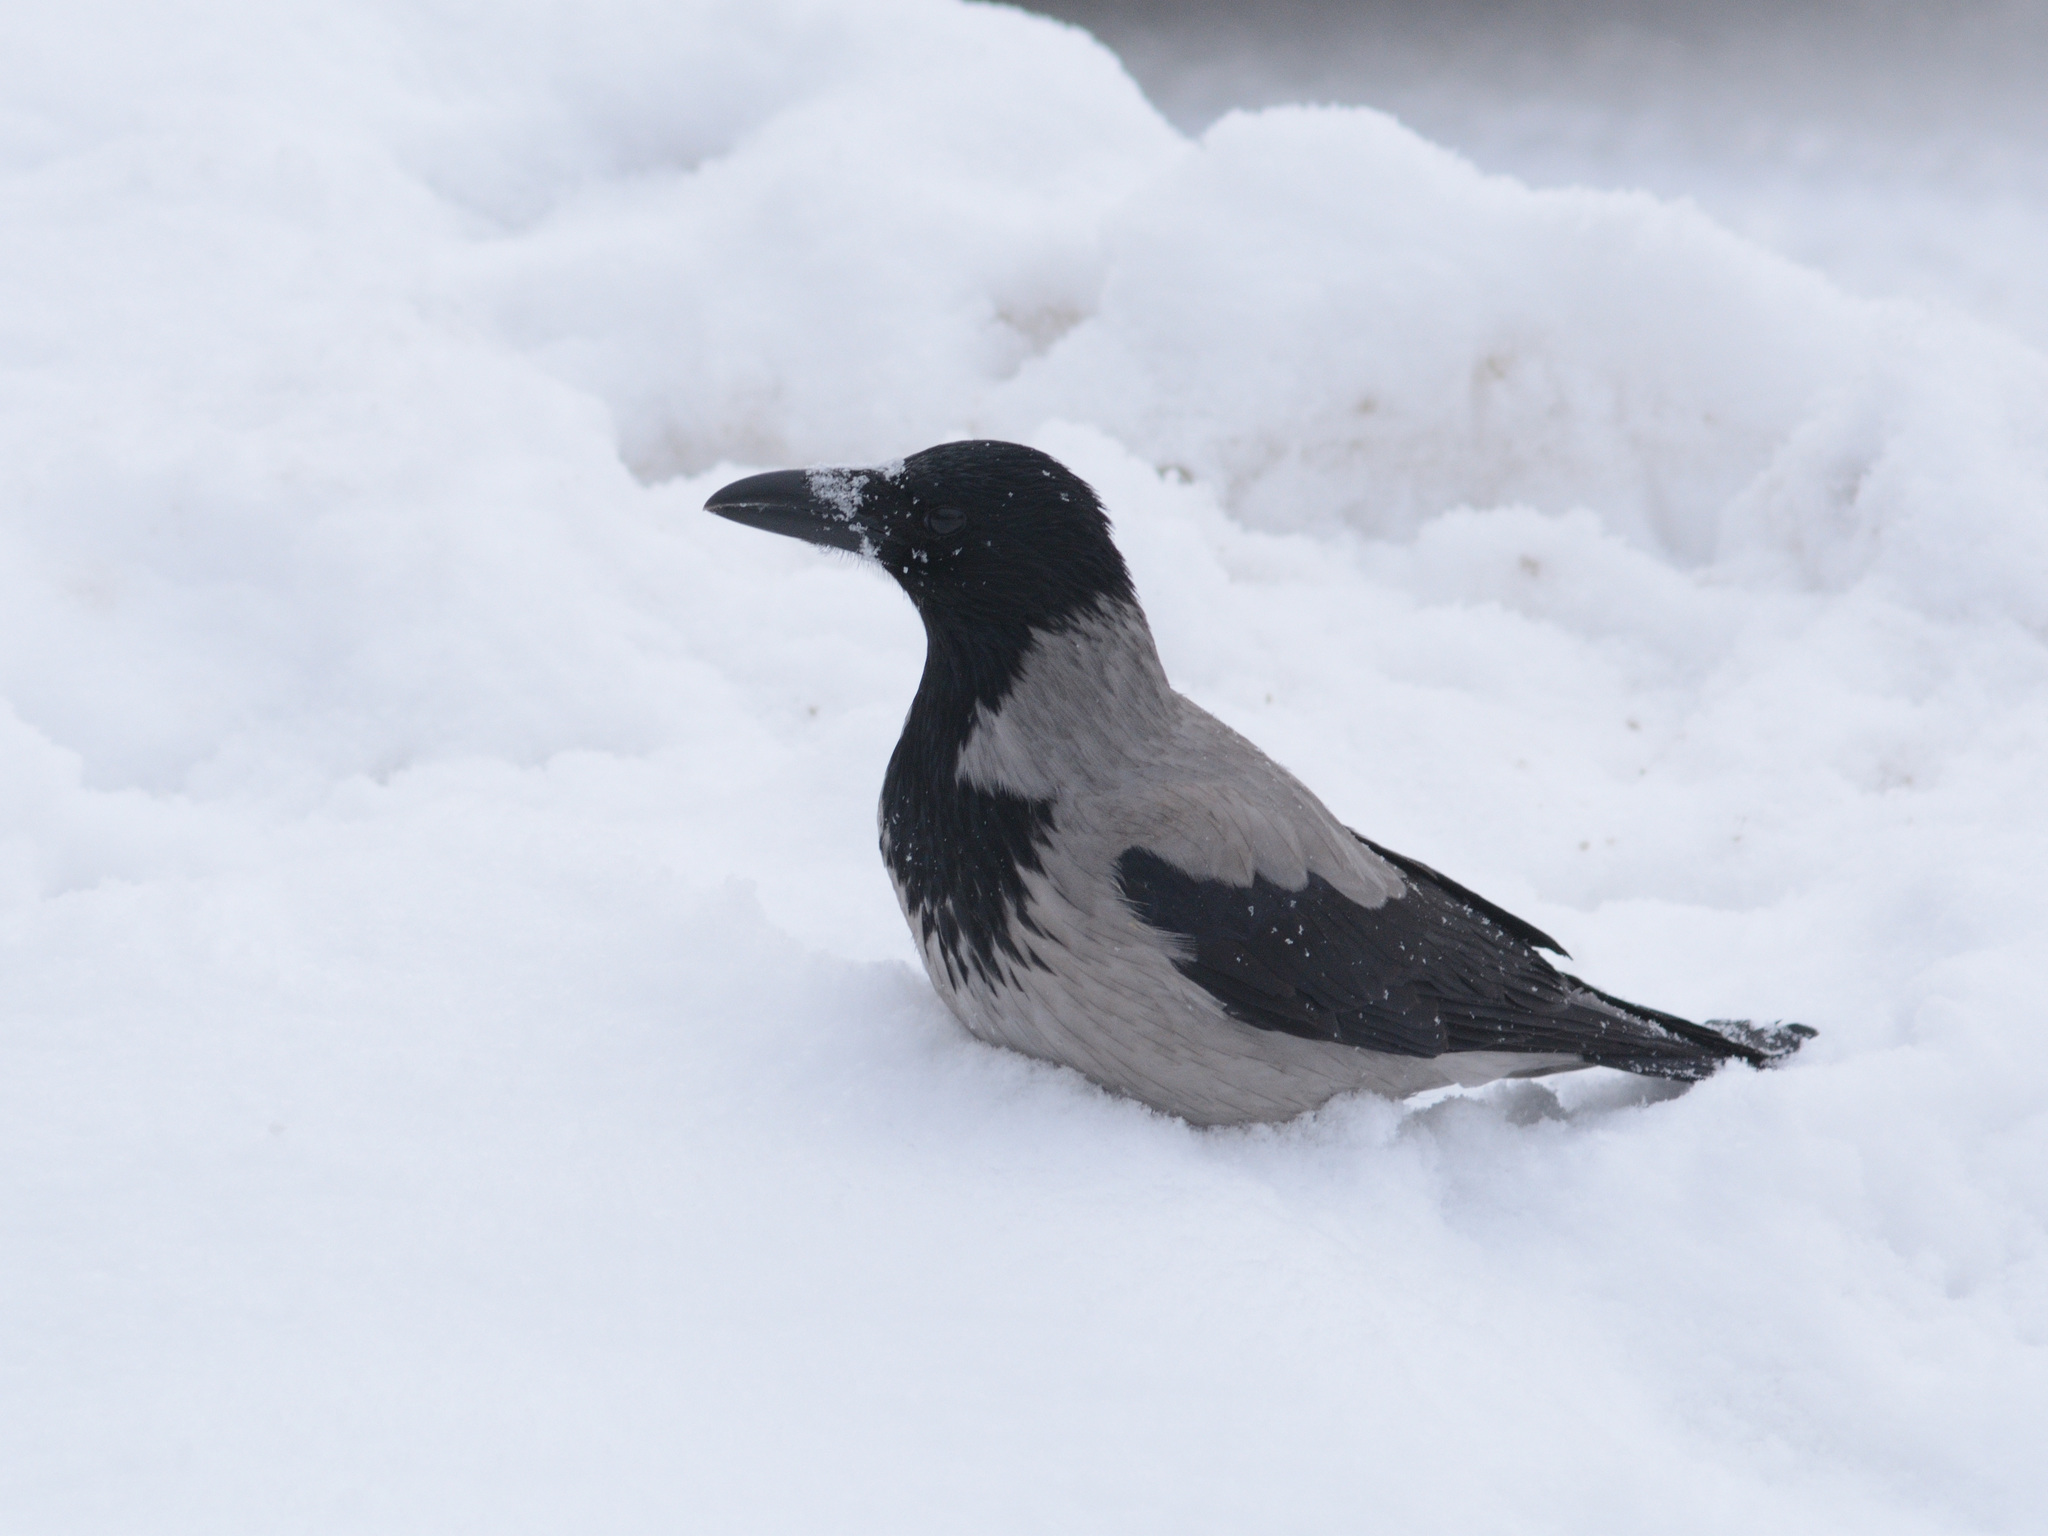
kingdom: Animalia
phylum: Chordata
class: Aves
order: Passeriformes
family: Corvidae
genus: Corvus
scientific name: Corvus cornix
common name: Hooded crow
